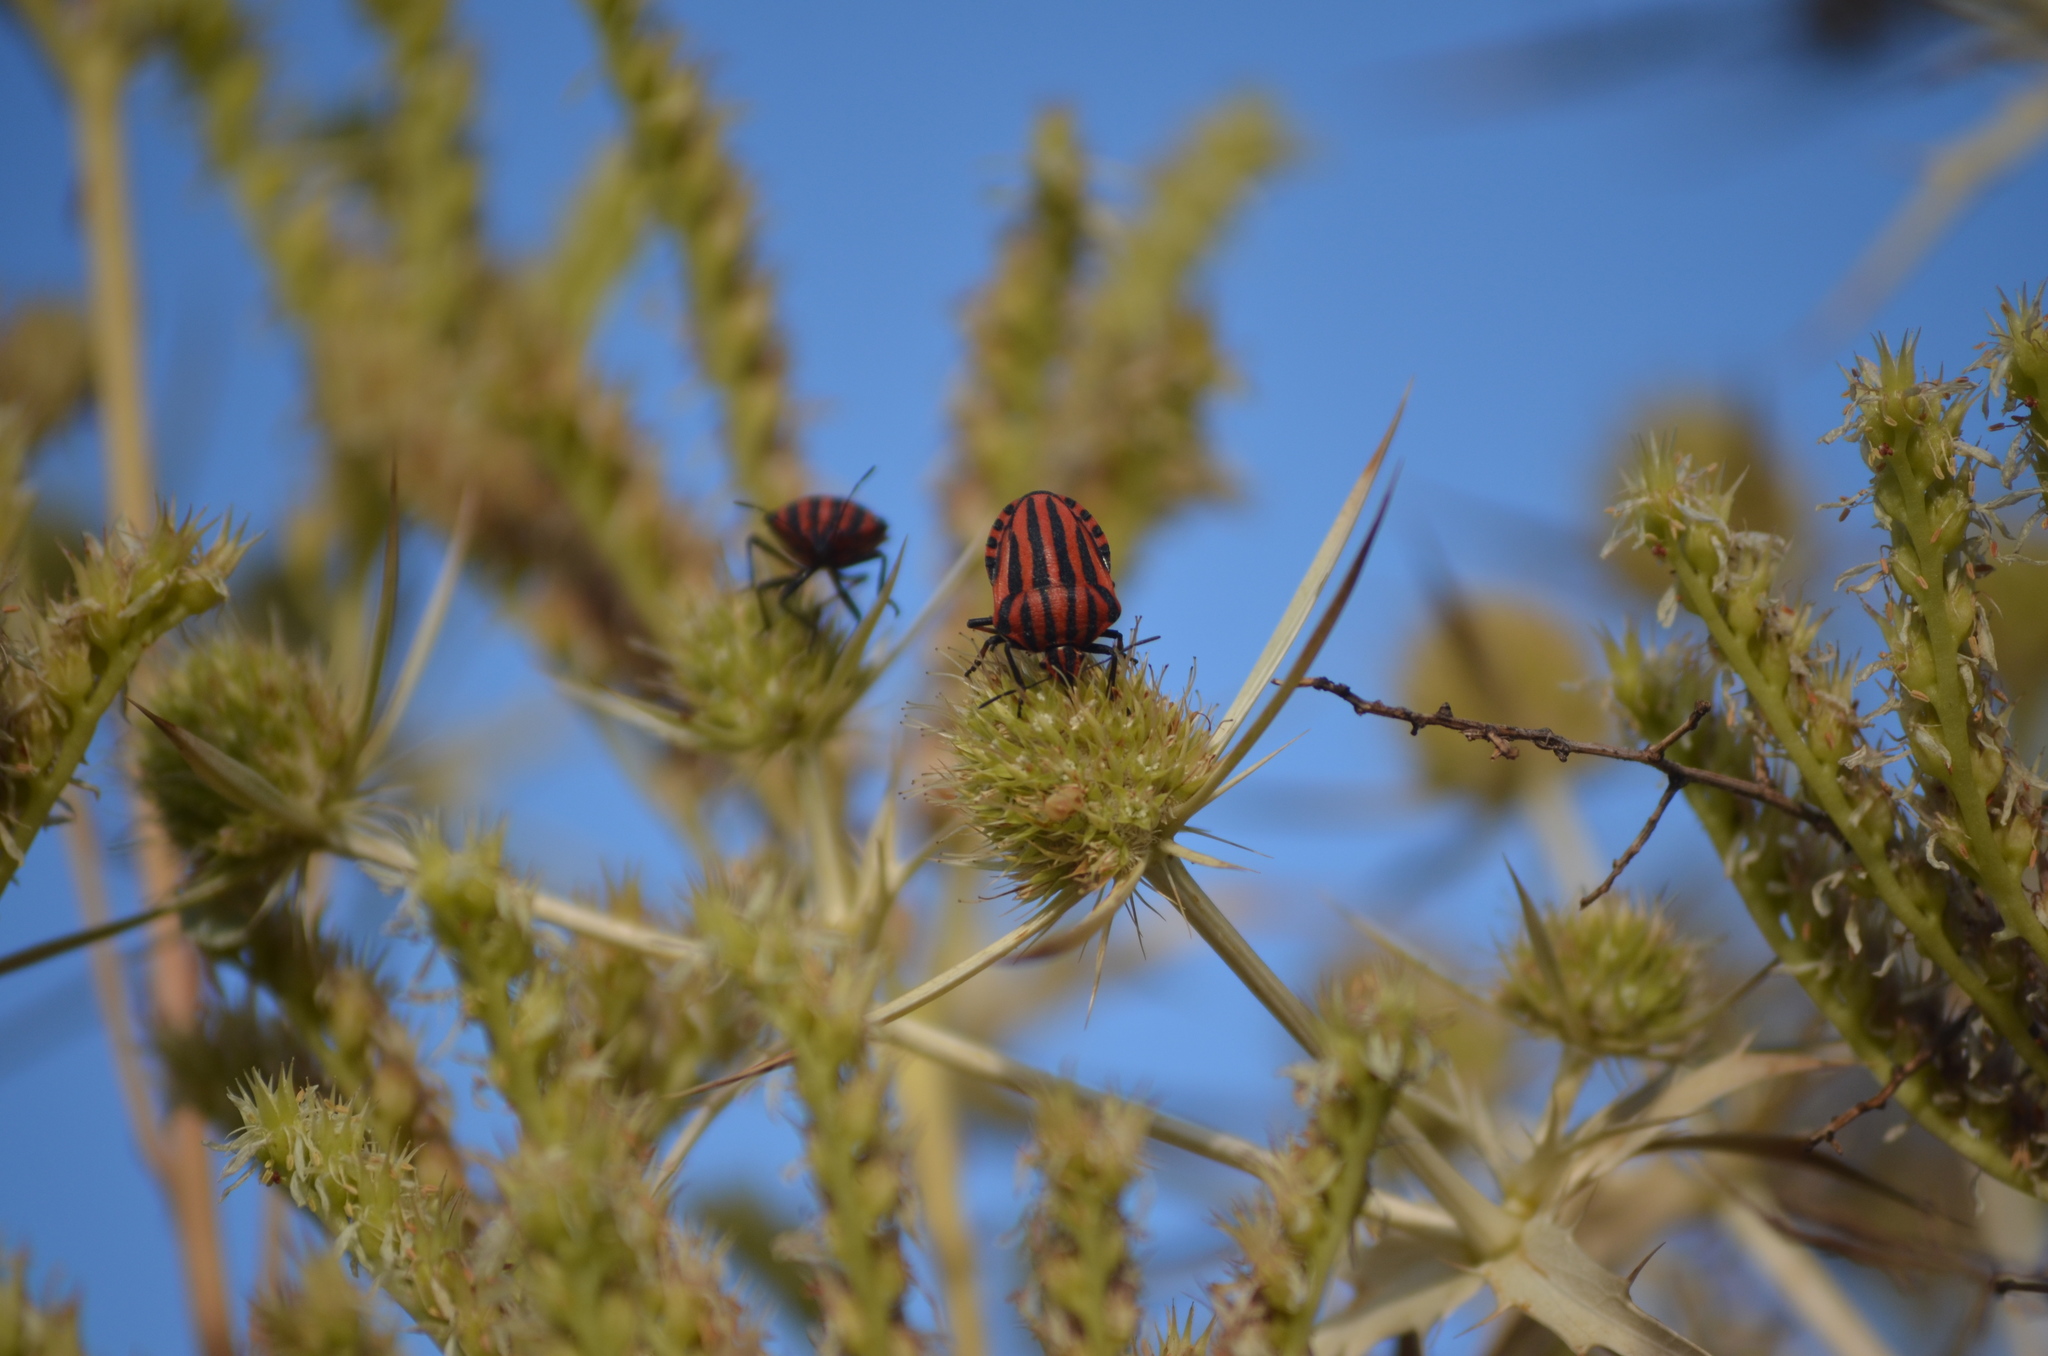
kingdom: Animalia
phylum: Arthropoda
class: Insecta
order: Hemiptera
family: Pentatomidae
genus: Graphosoma
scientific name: Graphosoma italicum
